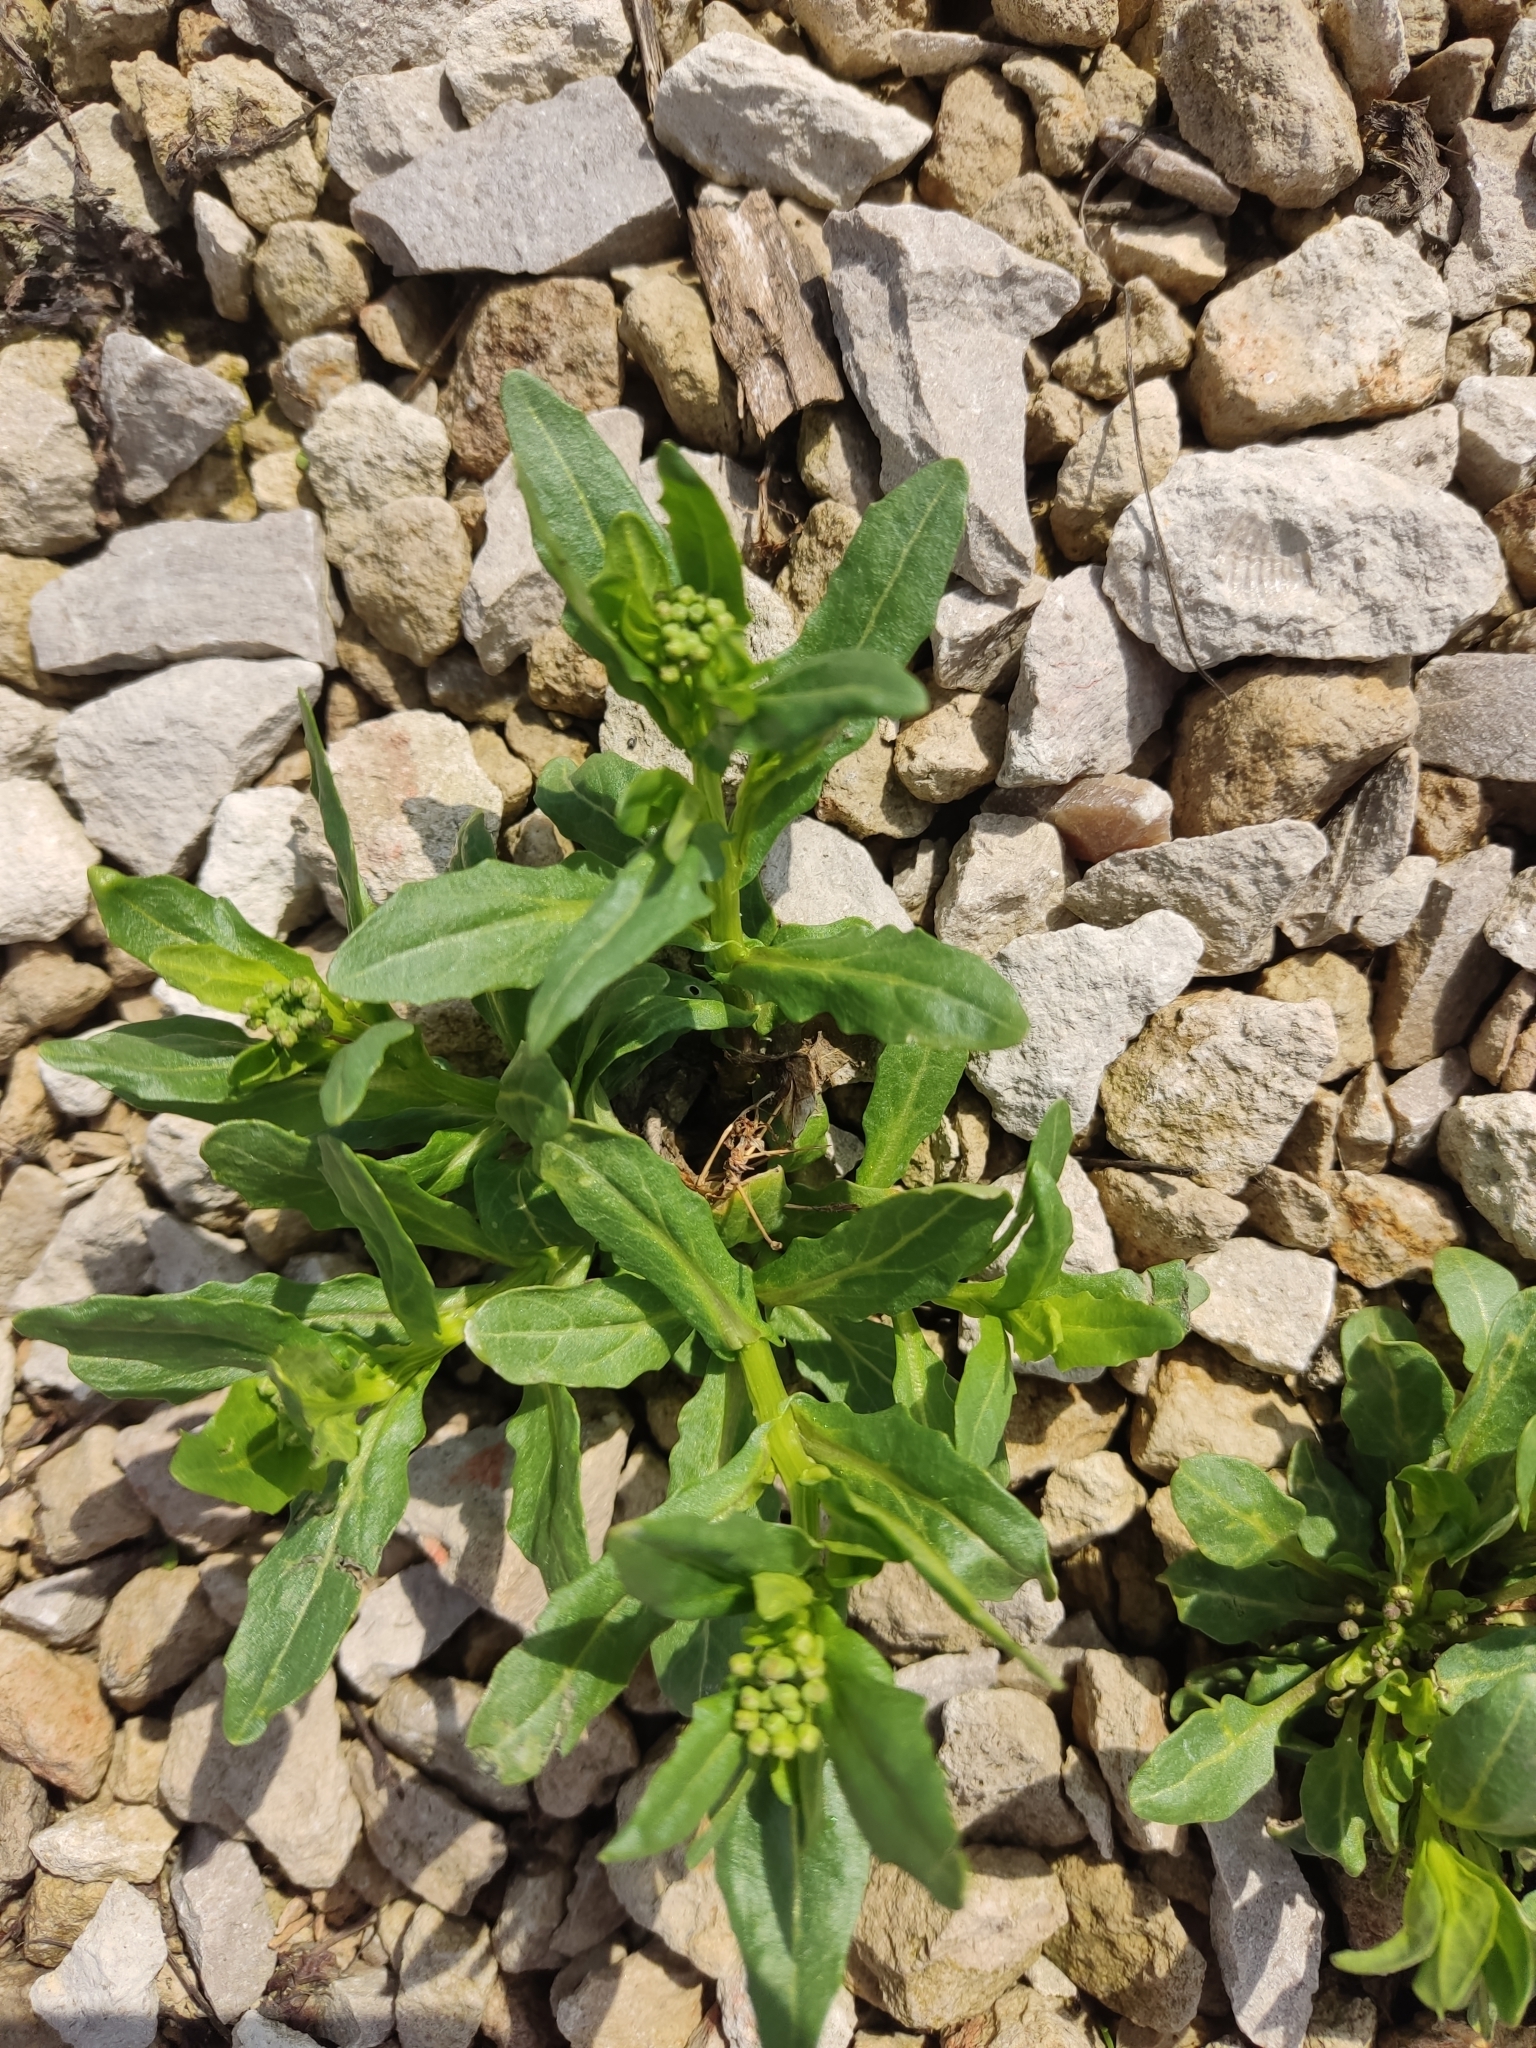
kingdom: Plantae
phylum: Tracheophyta
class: Magnoliopsida
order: Brassicales
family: Brassicaceae
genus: Thlaspi
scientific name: Thlaspi arvense
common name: Field pennycress
